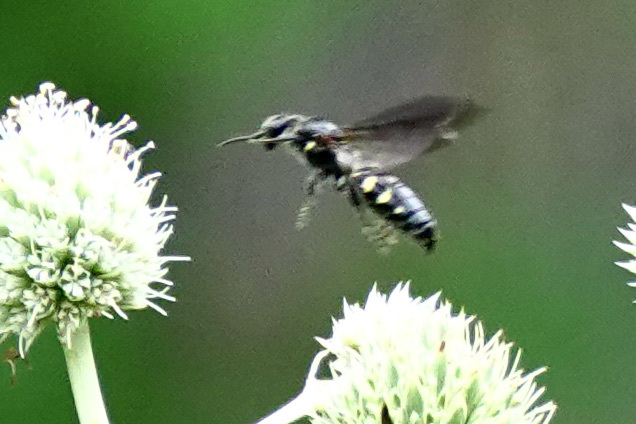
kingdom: Animalia
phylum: Arthropoda
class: Insecta
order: Hymenoptera
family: Tiphiidae
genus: Myzinum
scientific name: Myzinum obscurum
